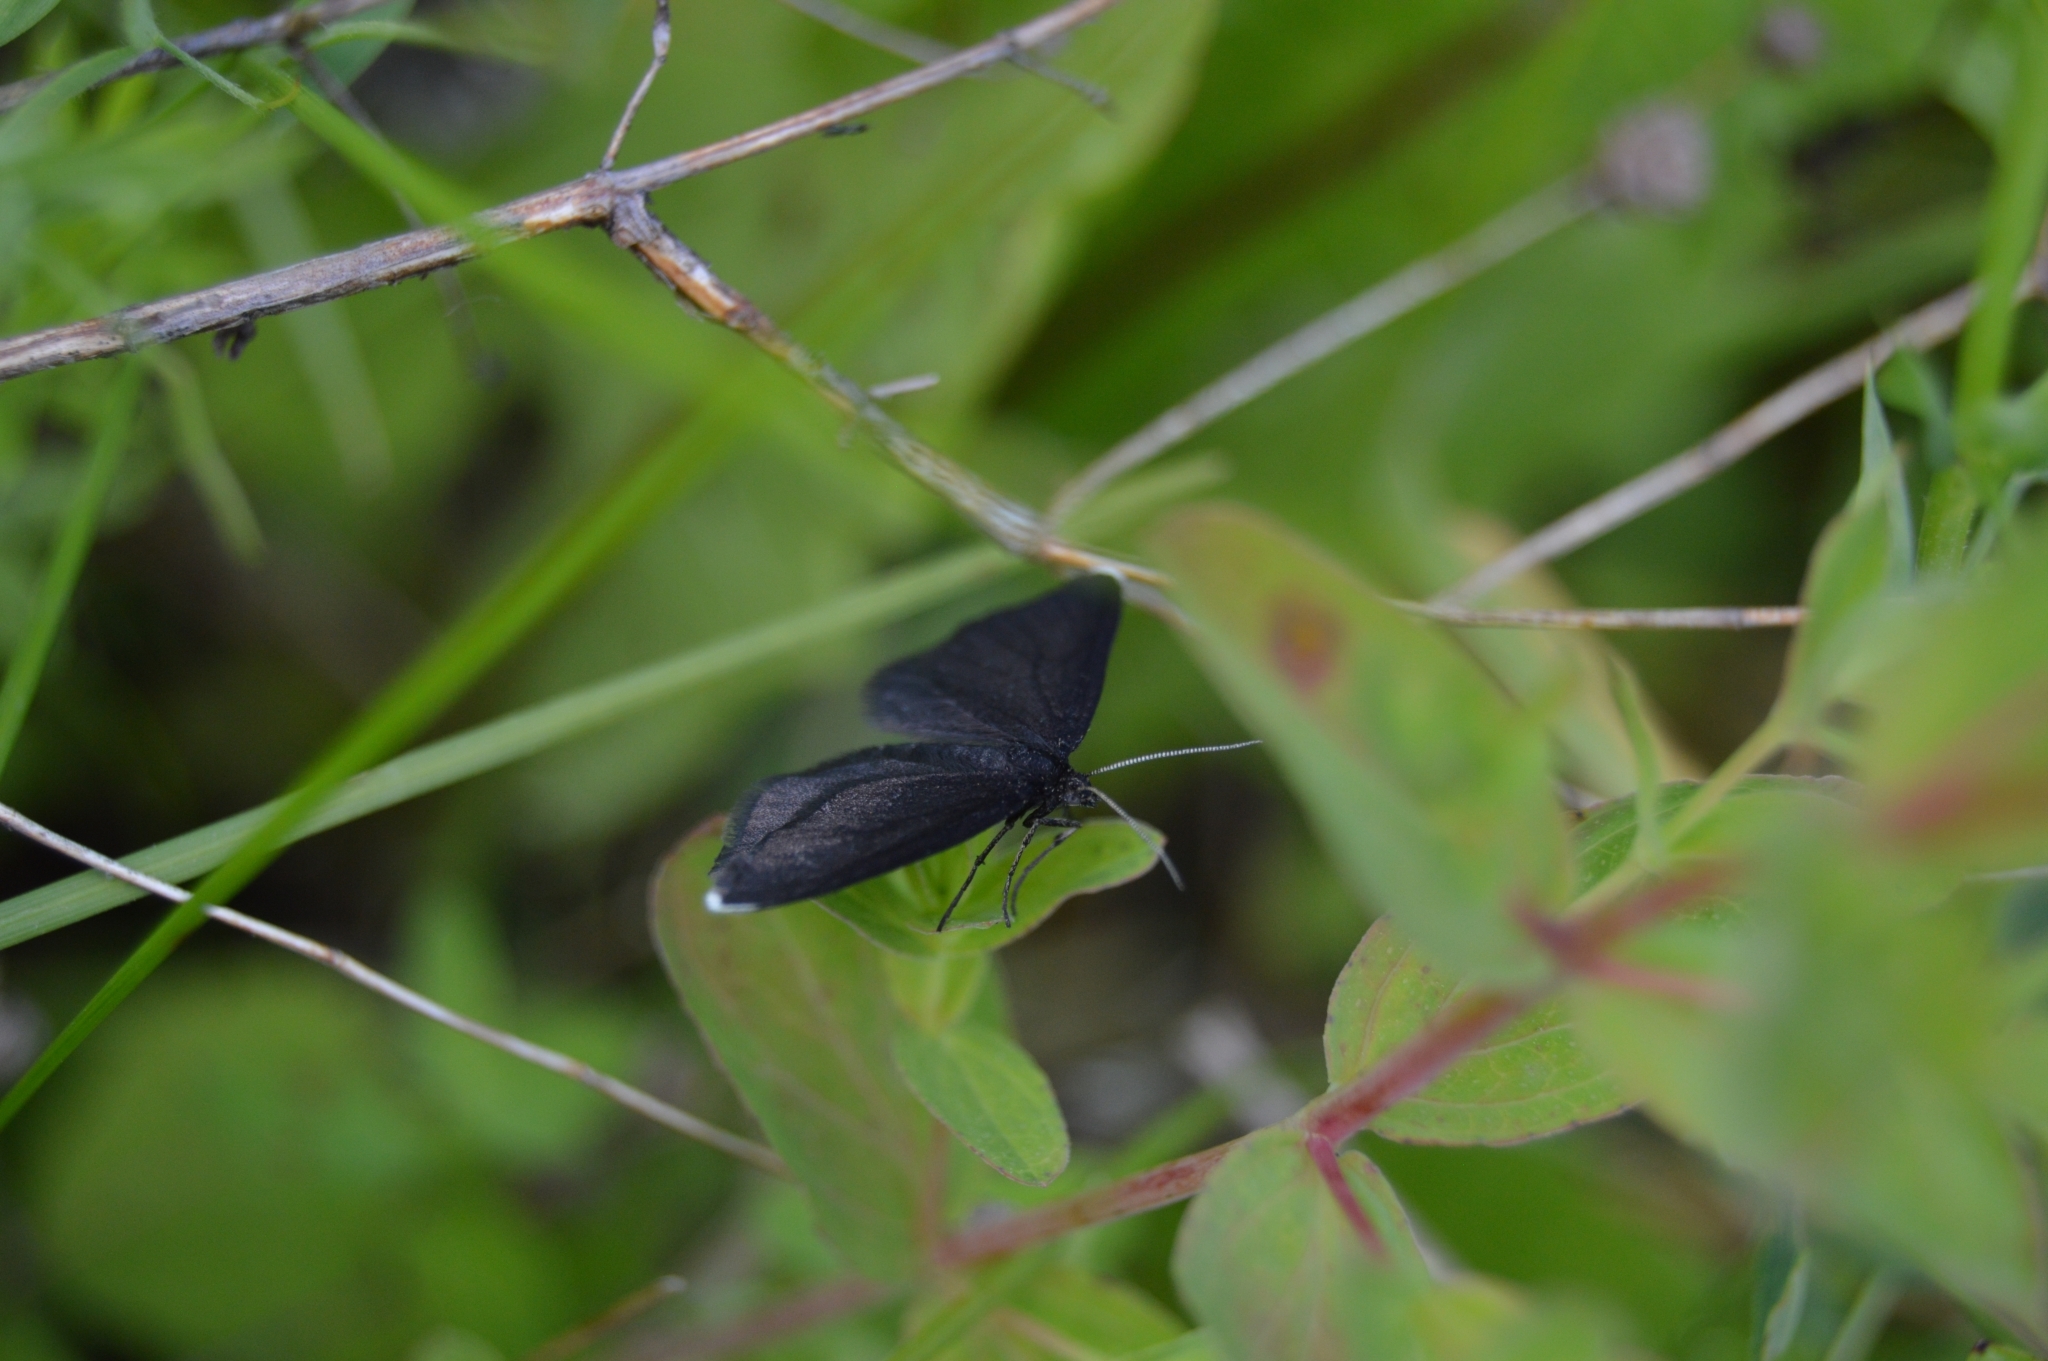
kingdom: Animalia
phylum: Arthropoda
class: Insecta
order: Lepidoptera
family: Geometridae
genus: Odezia
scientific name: Odezia atrata
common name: Chimney sweeper
